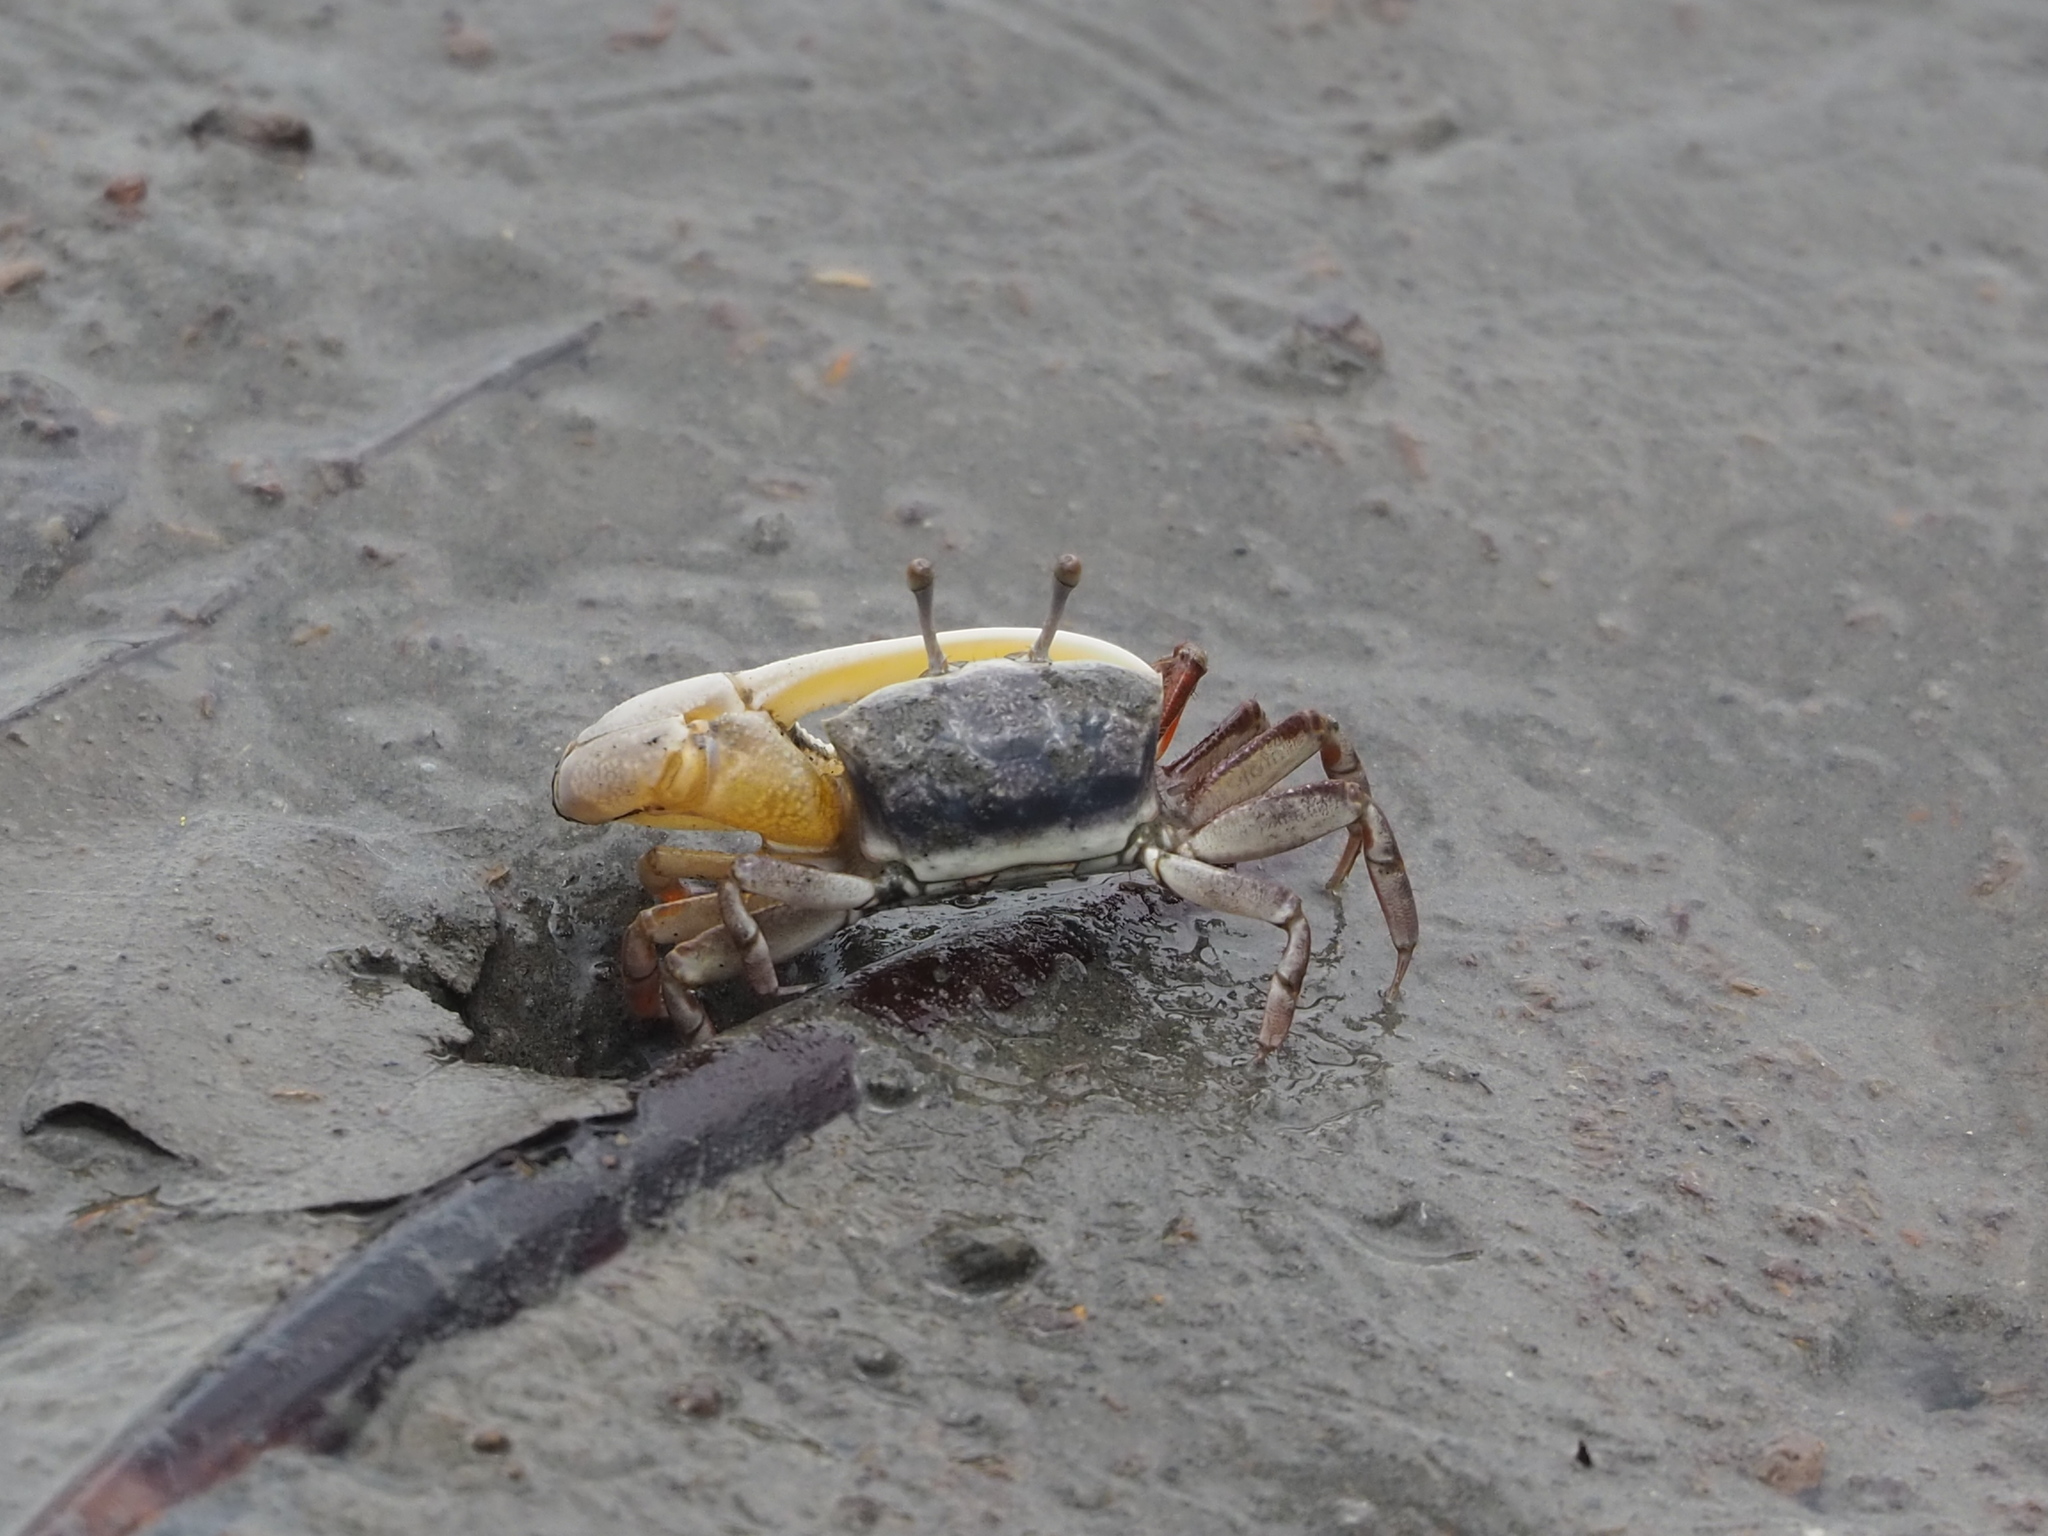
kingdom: Animalia
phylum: Arthropoda
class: Malacostraca
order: Decapoda
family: Ocypodidae
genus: Austruca
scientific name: Austruca lactea
